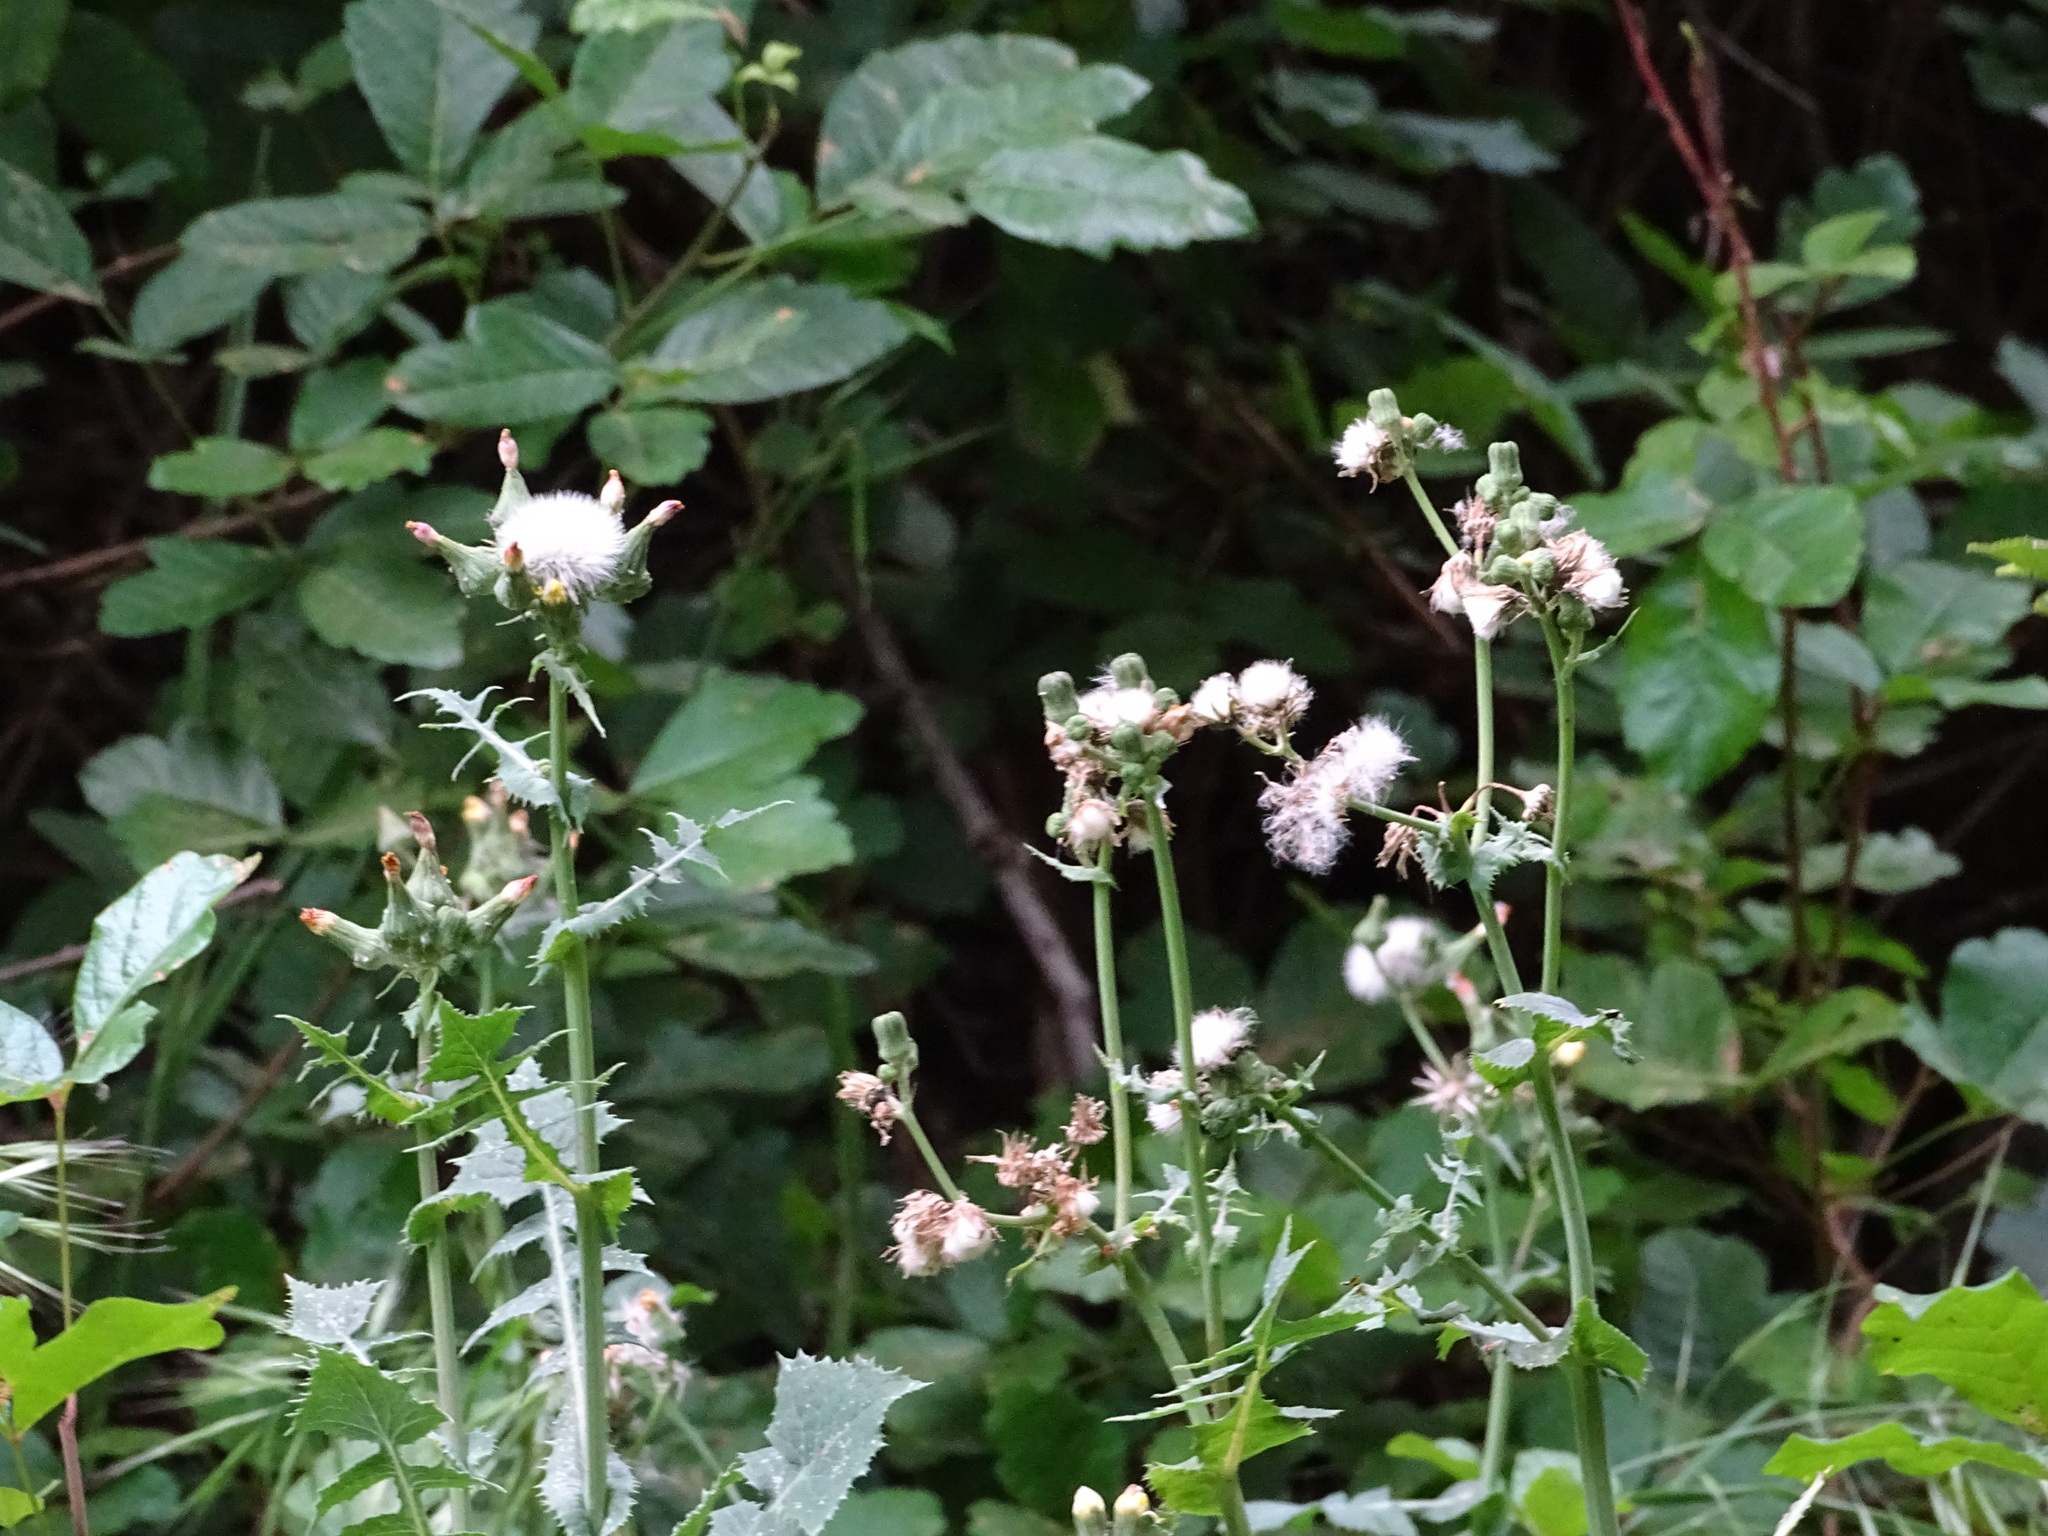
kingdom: Plantae
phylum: Tracheophyta
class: Magnoliopsida
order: Asterales
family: Asteraceae
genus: Sonchus
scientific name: Sonchus oleraceus
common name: Common sowthistle
